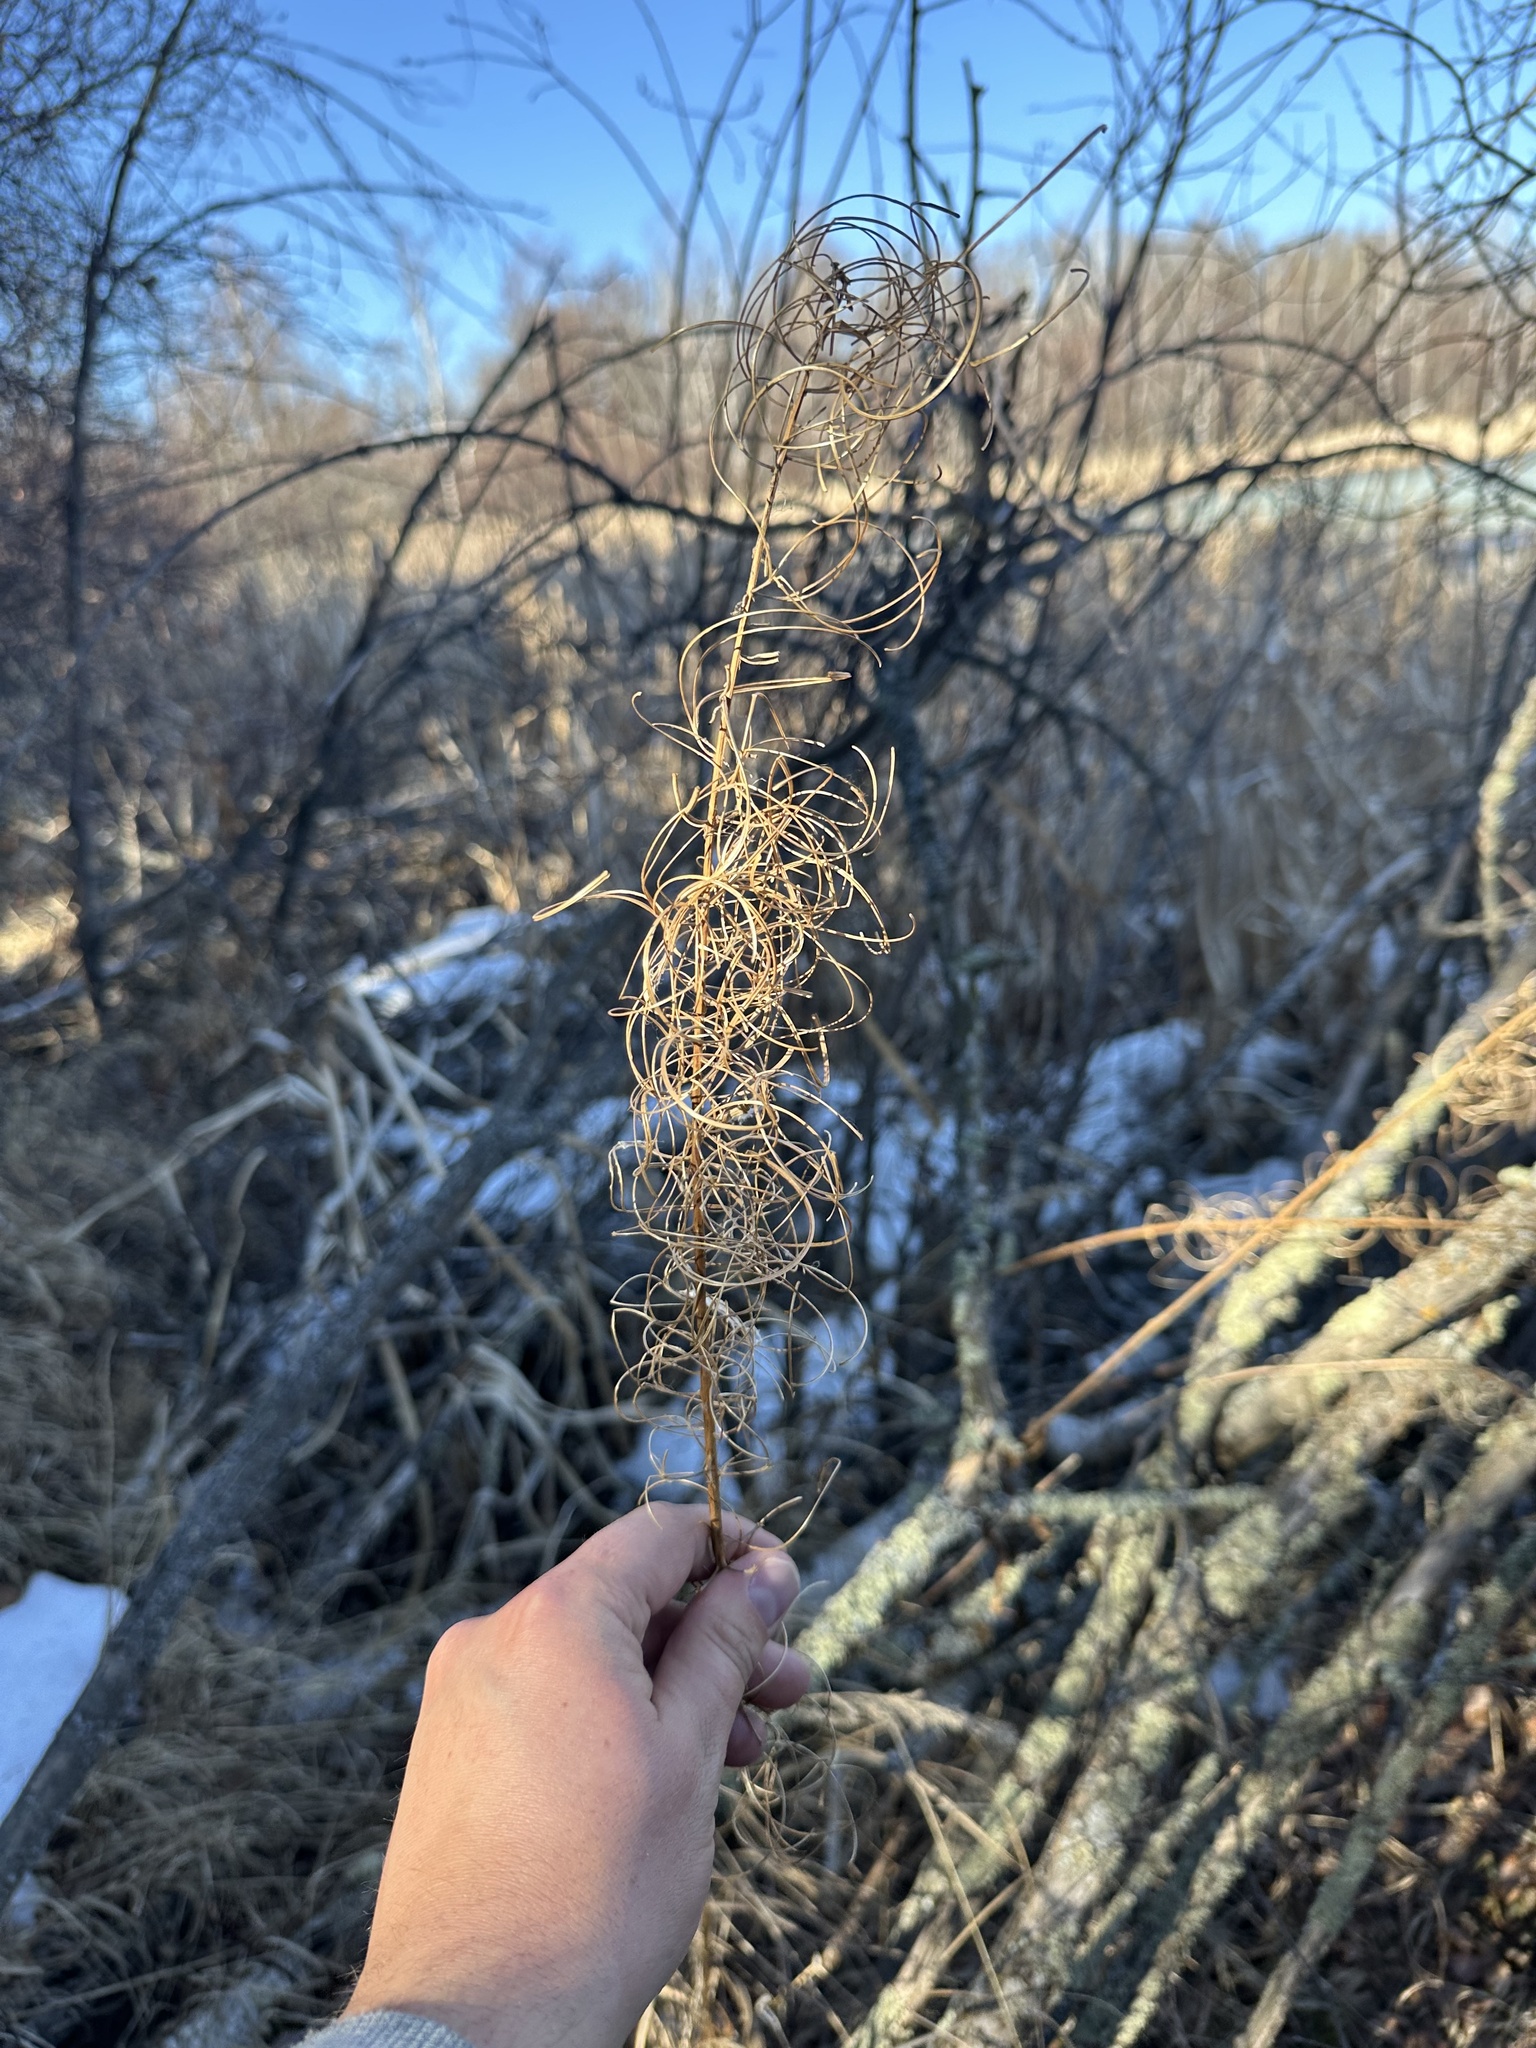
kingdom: Plantae
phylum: Tracheophyta
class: Magnoliopsida
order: Myrtales
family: Onagraceae
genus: Chamaenerion
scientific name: Chamaenerion angustifolium
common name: Fireweed
